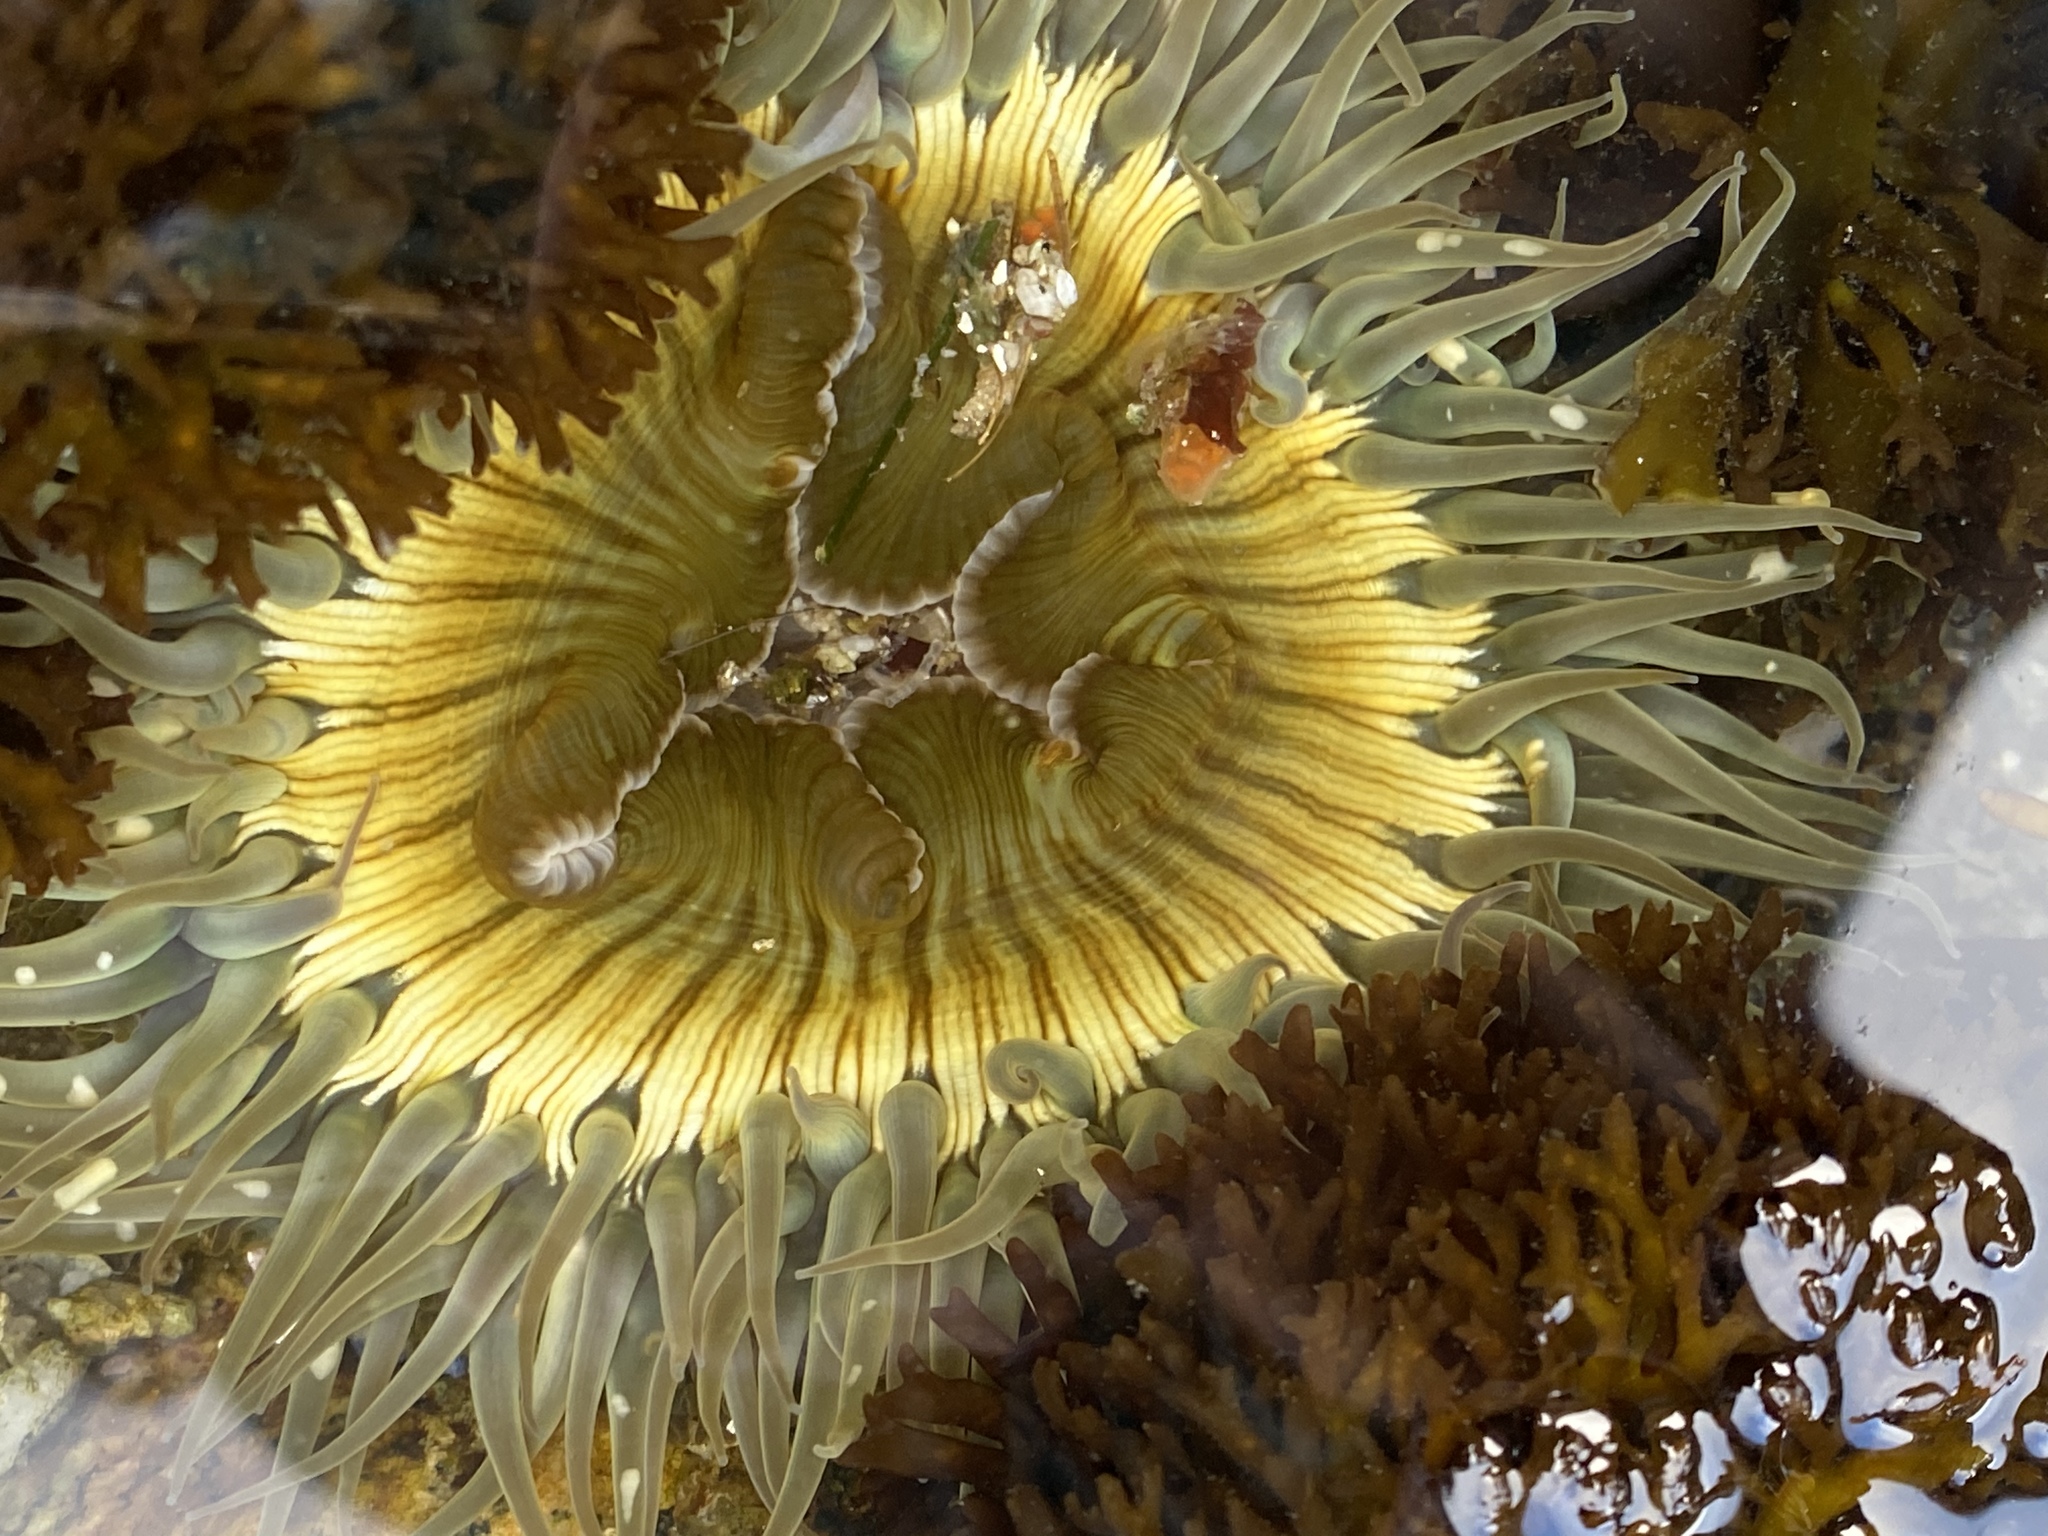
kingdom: Animalia
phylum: Cnidaria
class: Anthozoa
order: Actiniaria
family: Actiniidae
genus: Anthopleura
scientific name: Anthopleura sola
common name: Sun anemone
